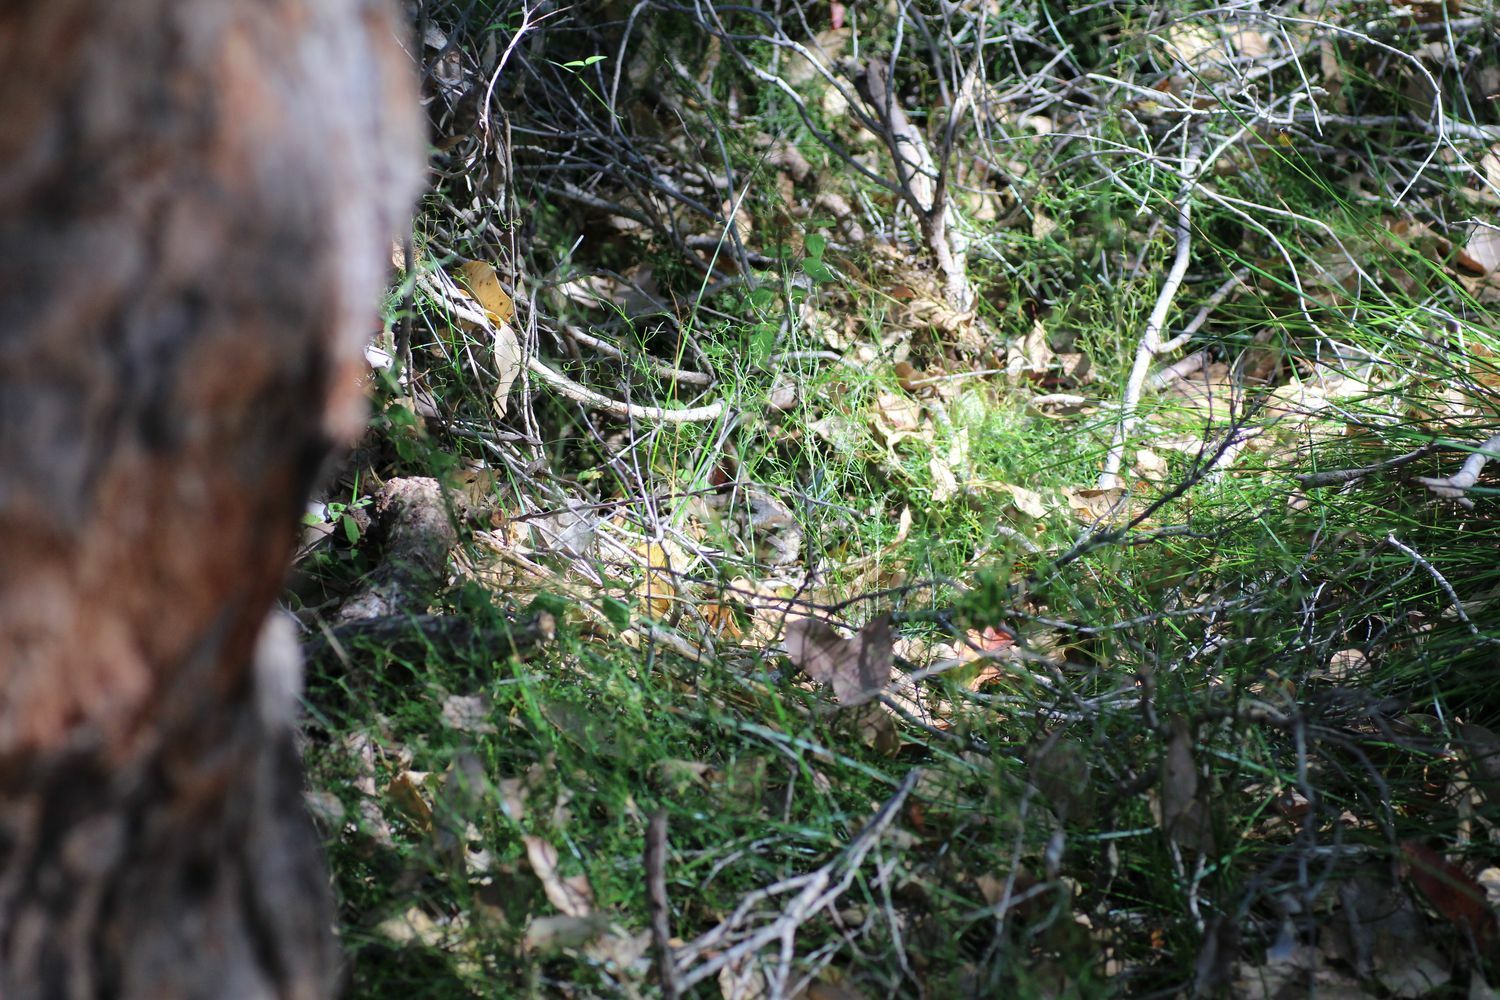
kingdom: Animalia
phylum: Chordata
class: Aves
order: Passeriformes
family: Maluridae
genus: Malurus
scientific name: Malurus elegans
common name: Red-winged fairywren
